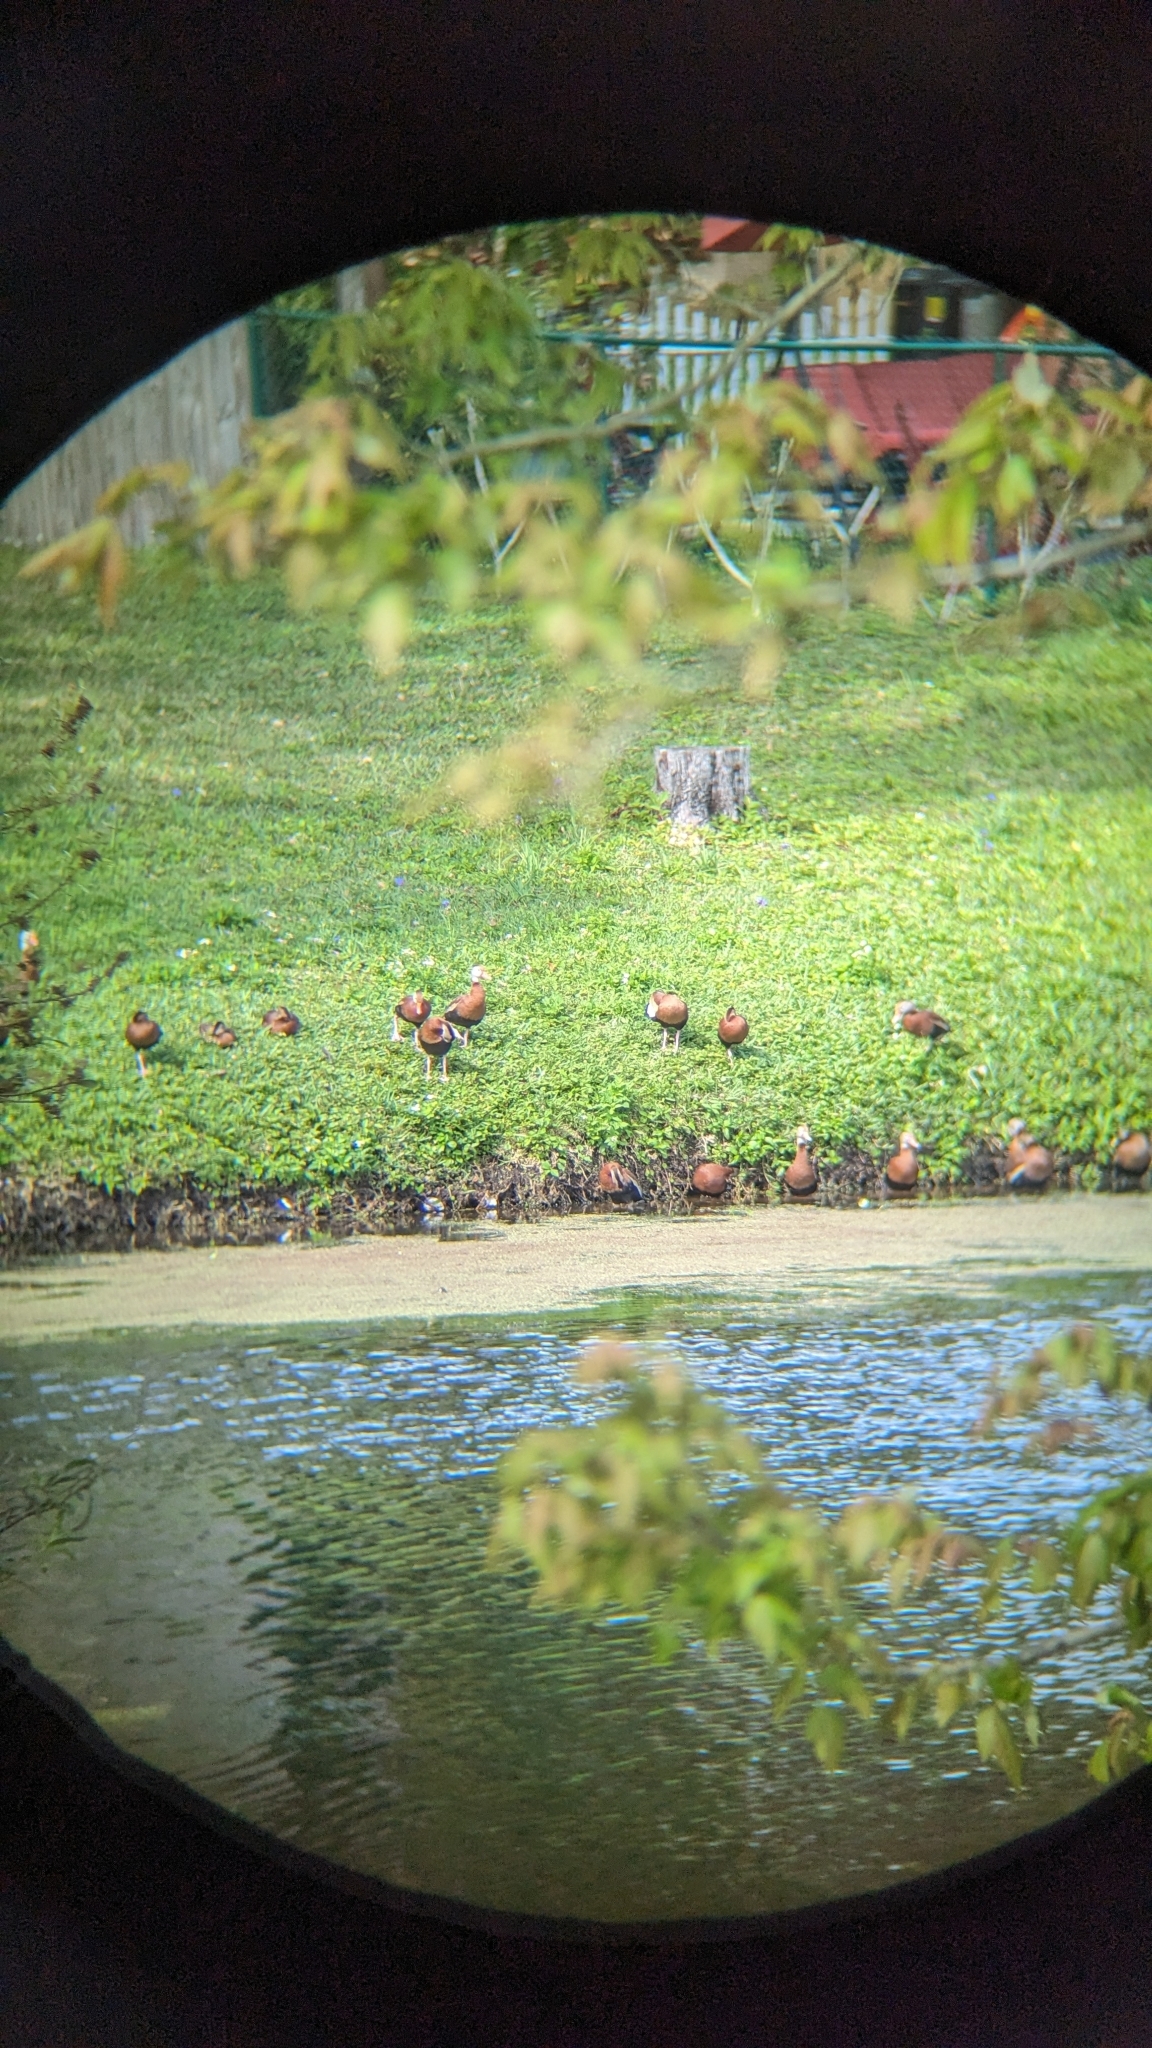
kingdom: Animalia
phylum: Chordata
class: Aves
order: Anseriformes
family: Anatidae
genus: Dendrocygna
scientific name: Dendrocygna autumnalis
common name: Black-bellied whistling duck
